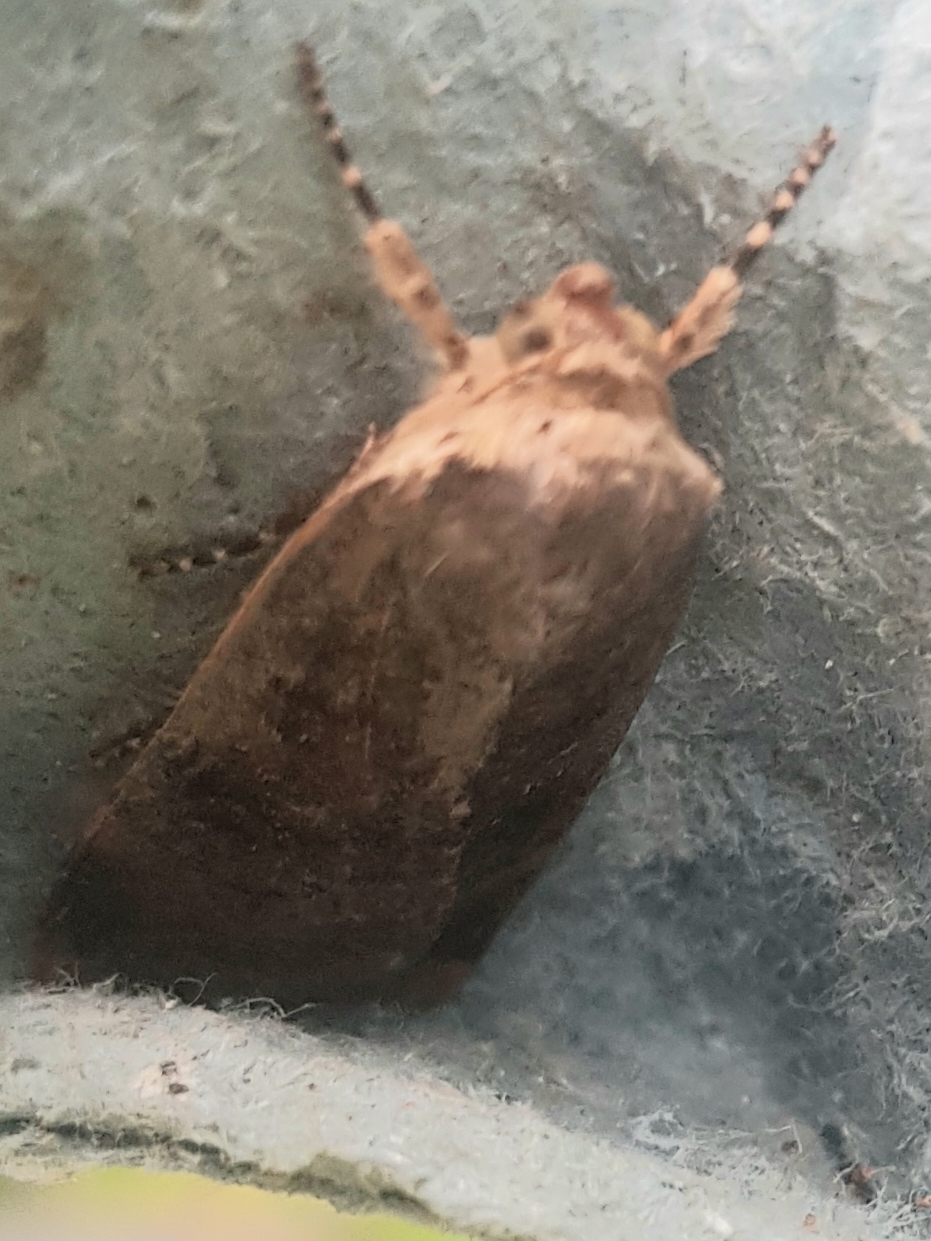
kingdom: Animalia
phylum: Arthropoda
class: Insecta
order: Lepidoptera
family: Noctuidae
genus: Noctua
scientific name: Noctua janthe
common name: Lesser broad-bordered yellow underwing
